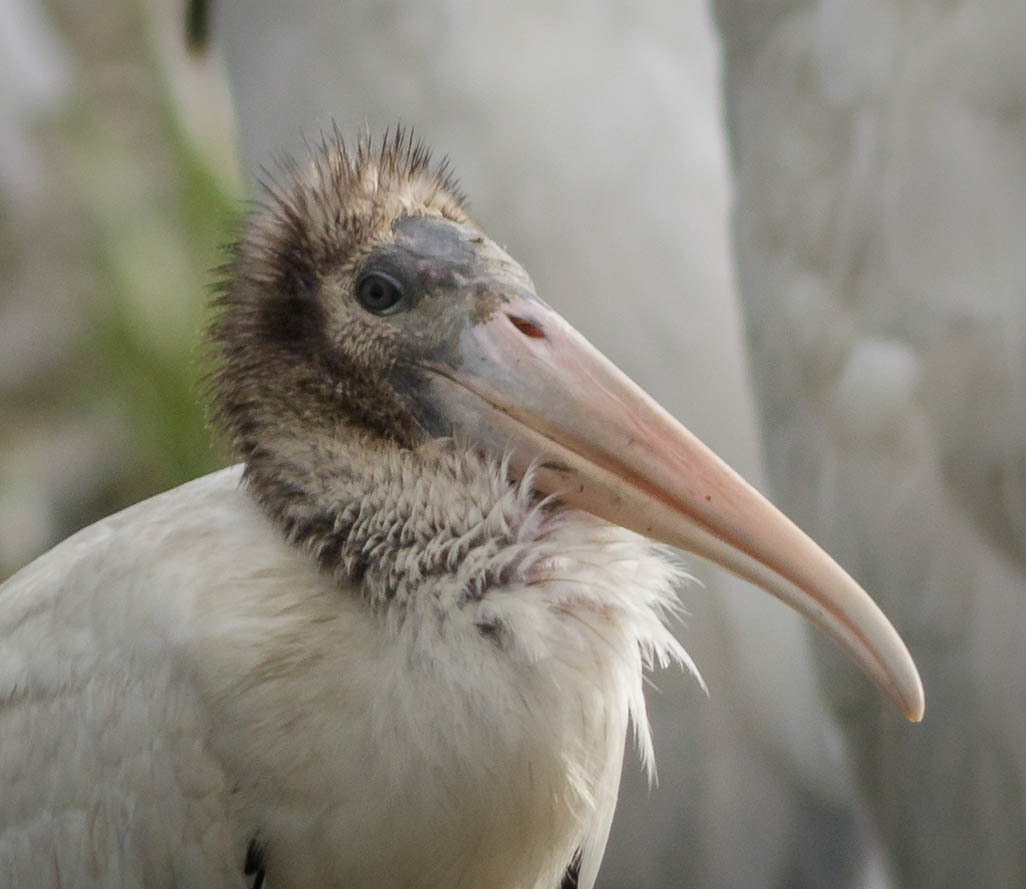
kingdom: Animalia
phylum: Chordata
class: Aves
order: Ciconiiformes
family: Ciconiidae
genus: Mycteria
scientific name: Mycteria americana
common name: Wood stork
